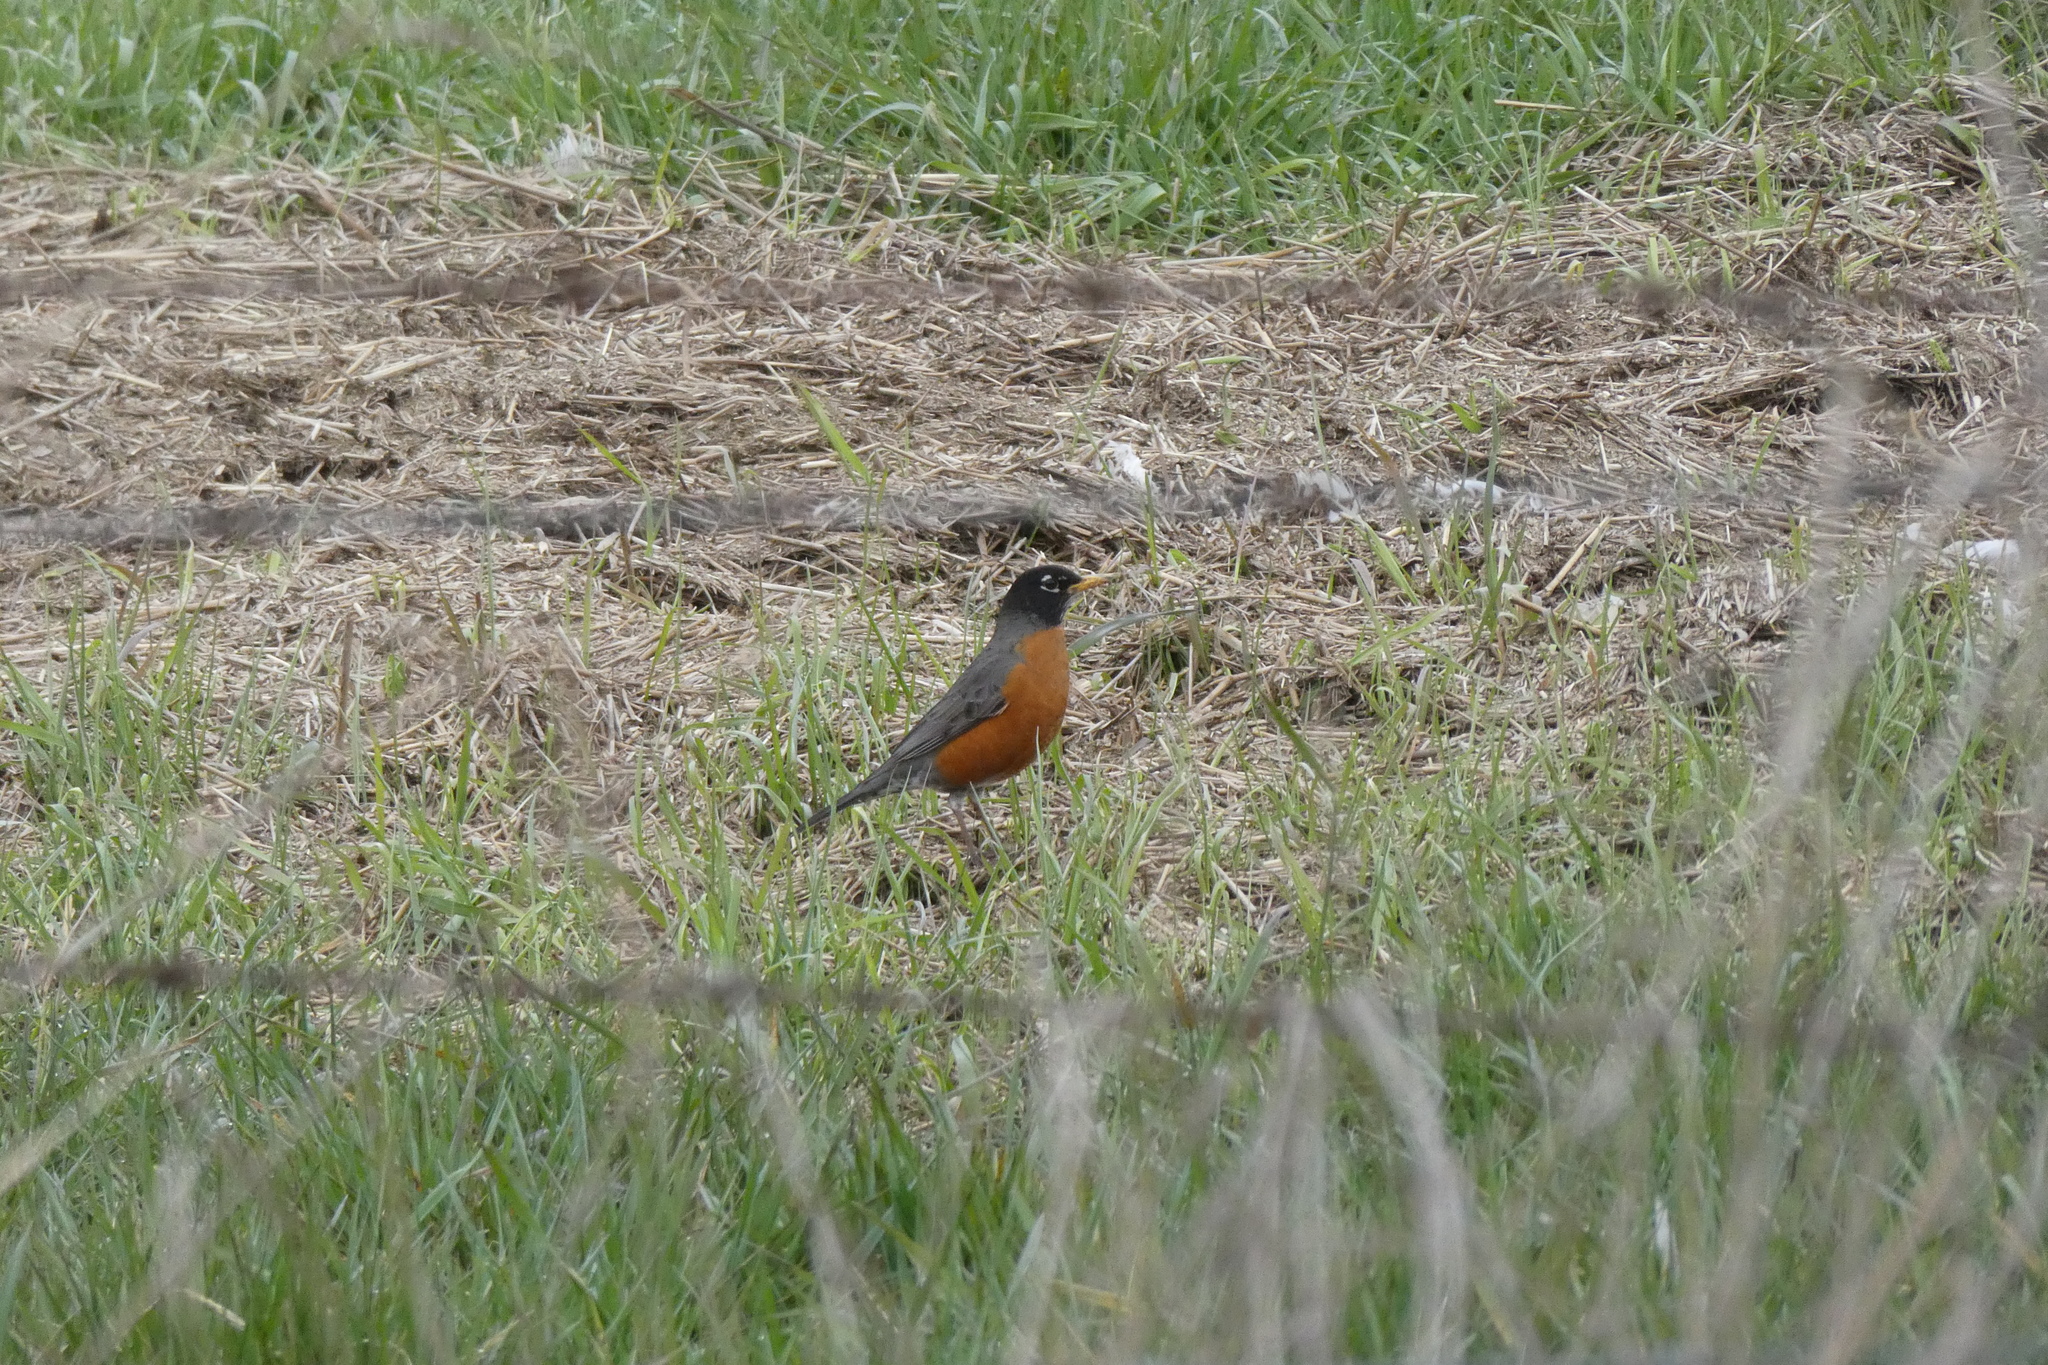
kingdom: Animalia
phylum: Chordata
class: Aves
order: Passeriformes
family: Turdidae
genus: Turdus
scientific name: Turdus migratorius
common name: American robin
